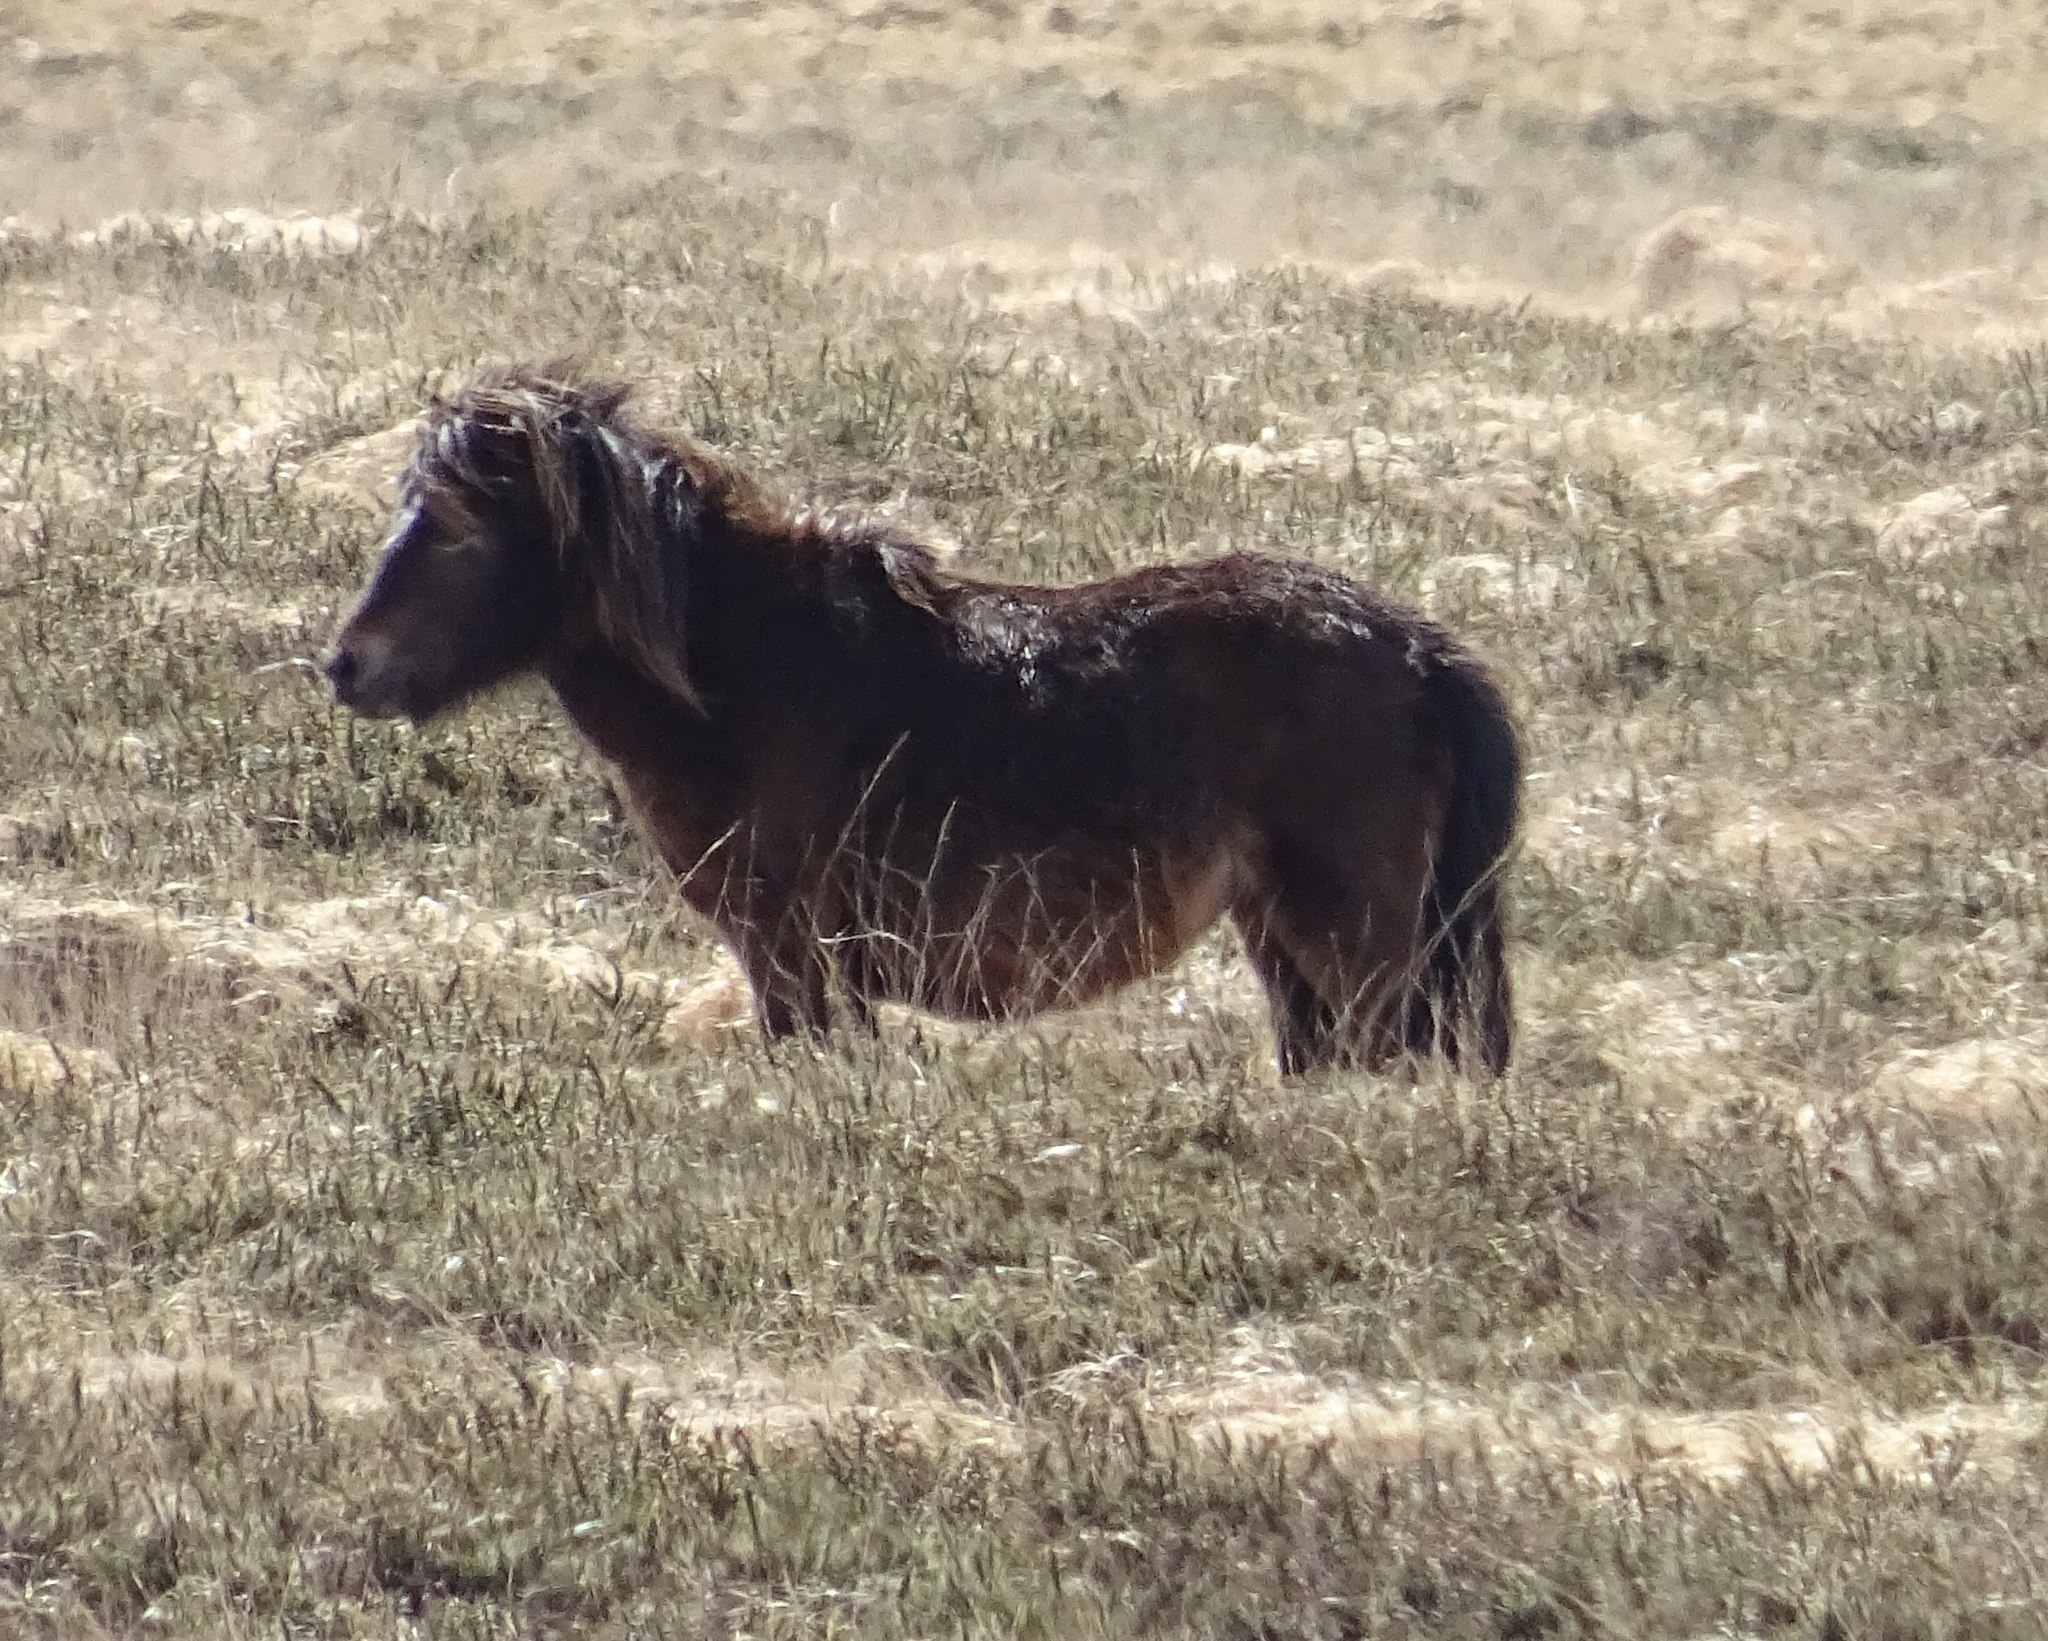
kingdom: Animalia
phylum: Chordata
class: Mammalia
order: Perissodactyla
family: Equidae
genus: Equus
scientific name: Equus caballus
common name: Horse
